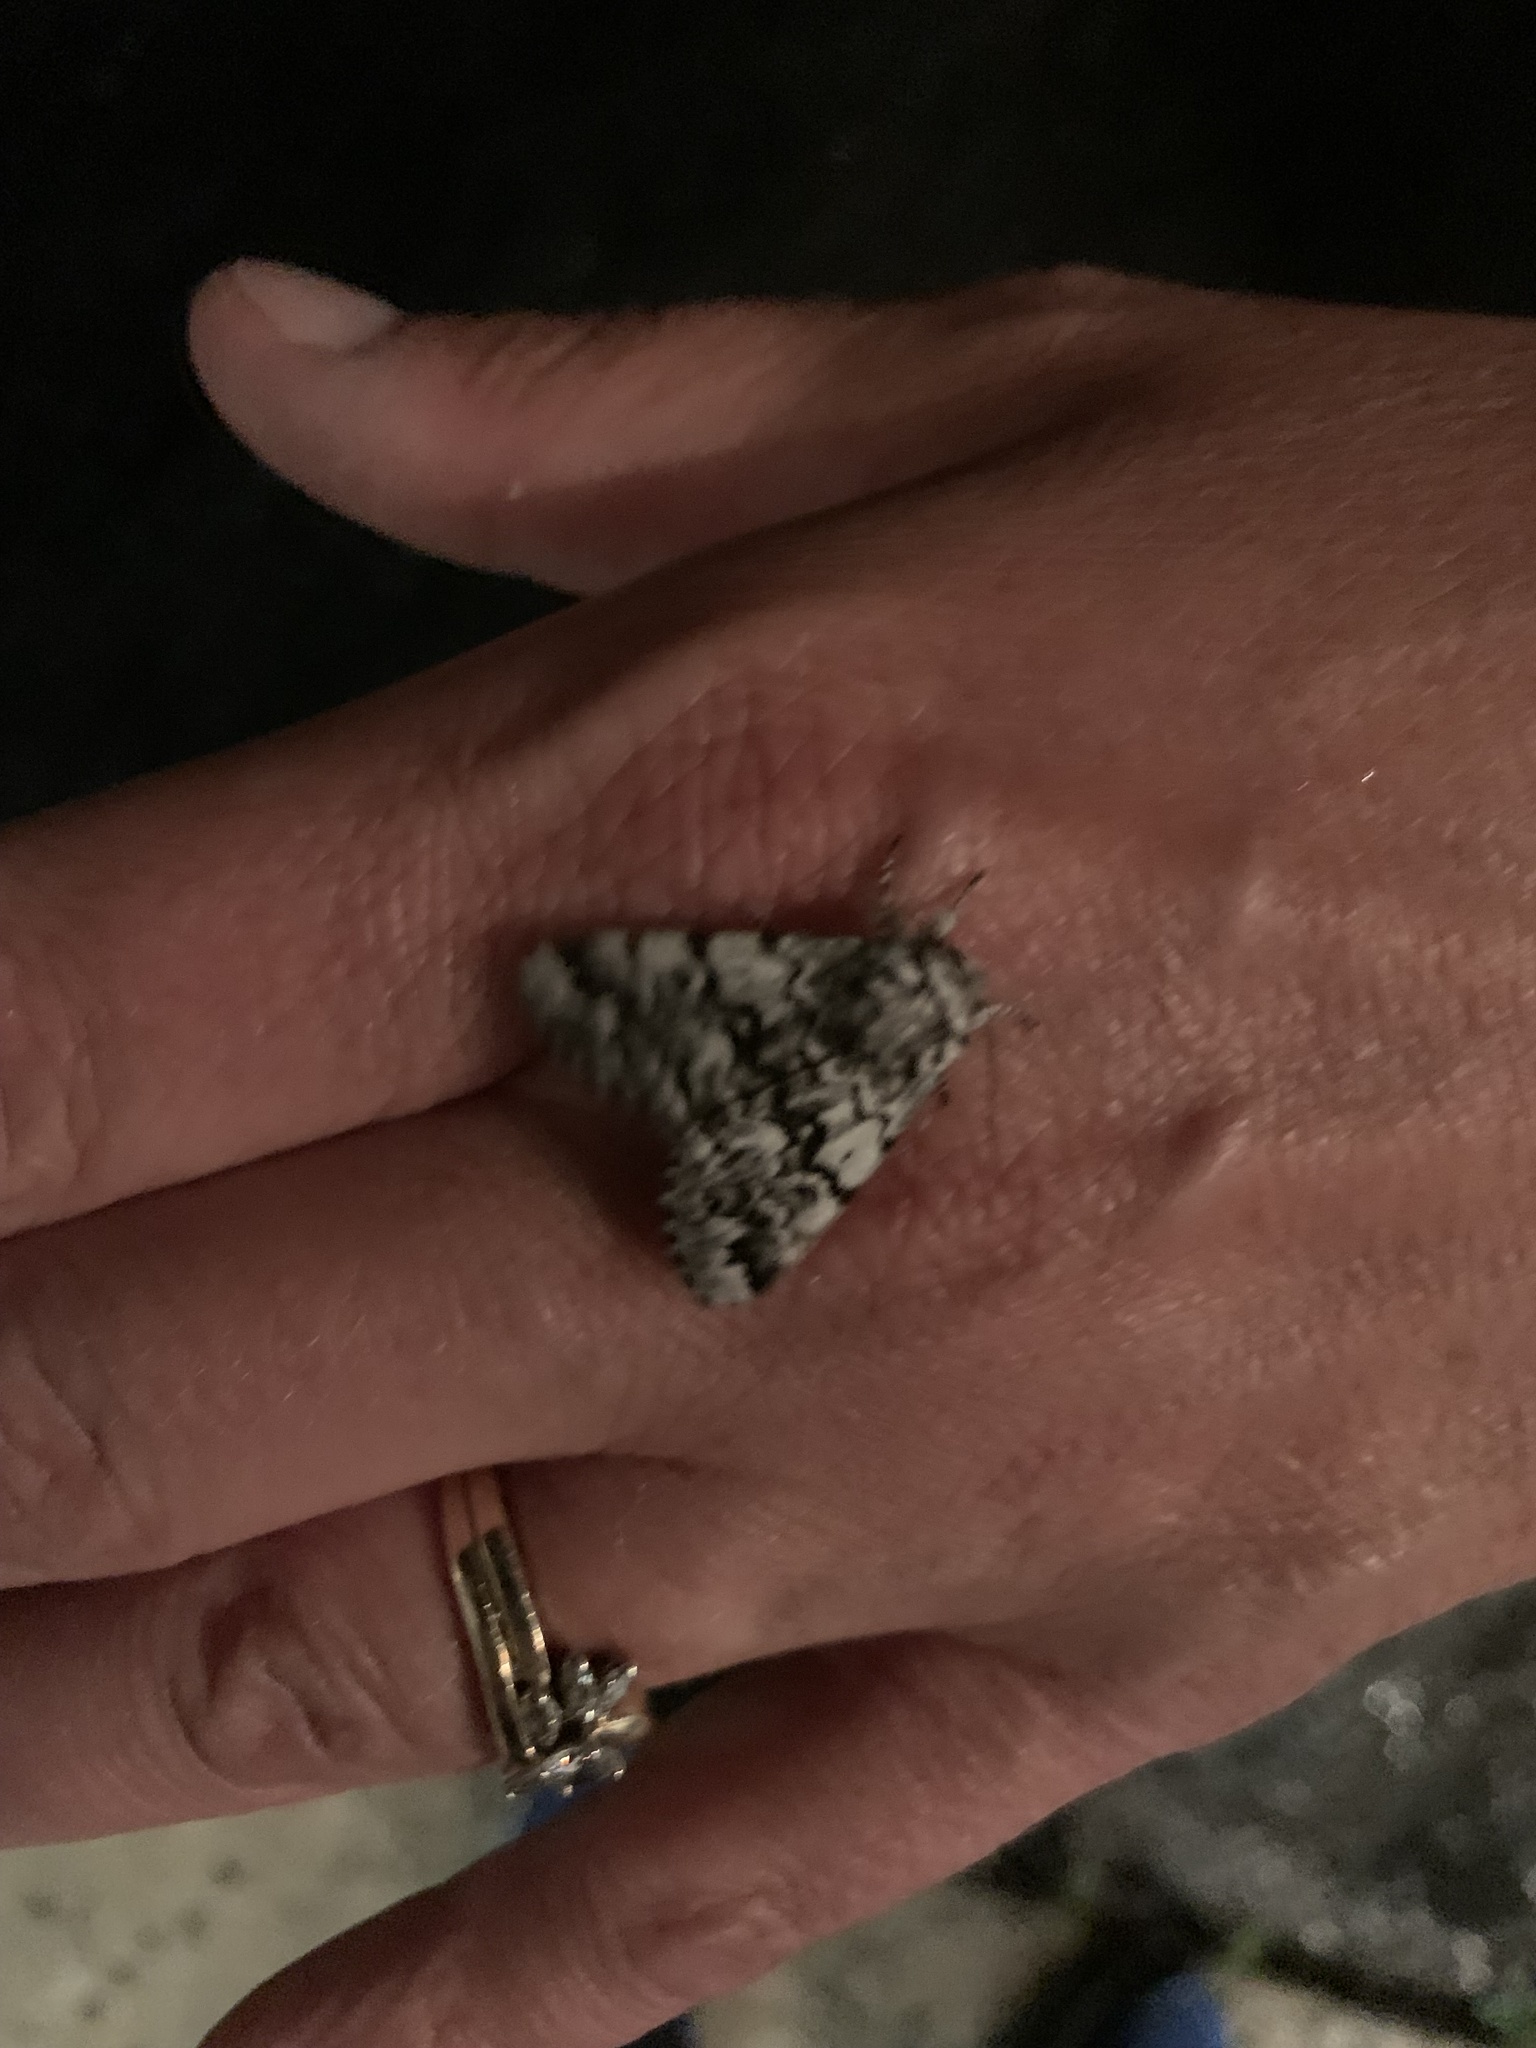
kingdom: Animalia
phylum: Arthropoda
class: Insecta
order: Lepidoptera
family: Noctuidae
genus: Panthea
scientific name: Panthea acronyctoides
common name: Black zigzag moth
